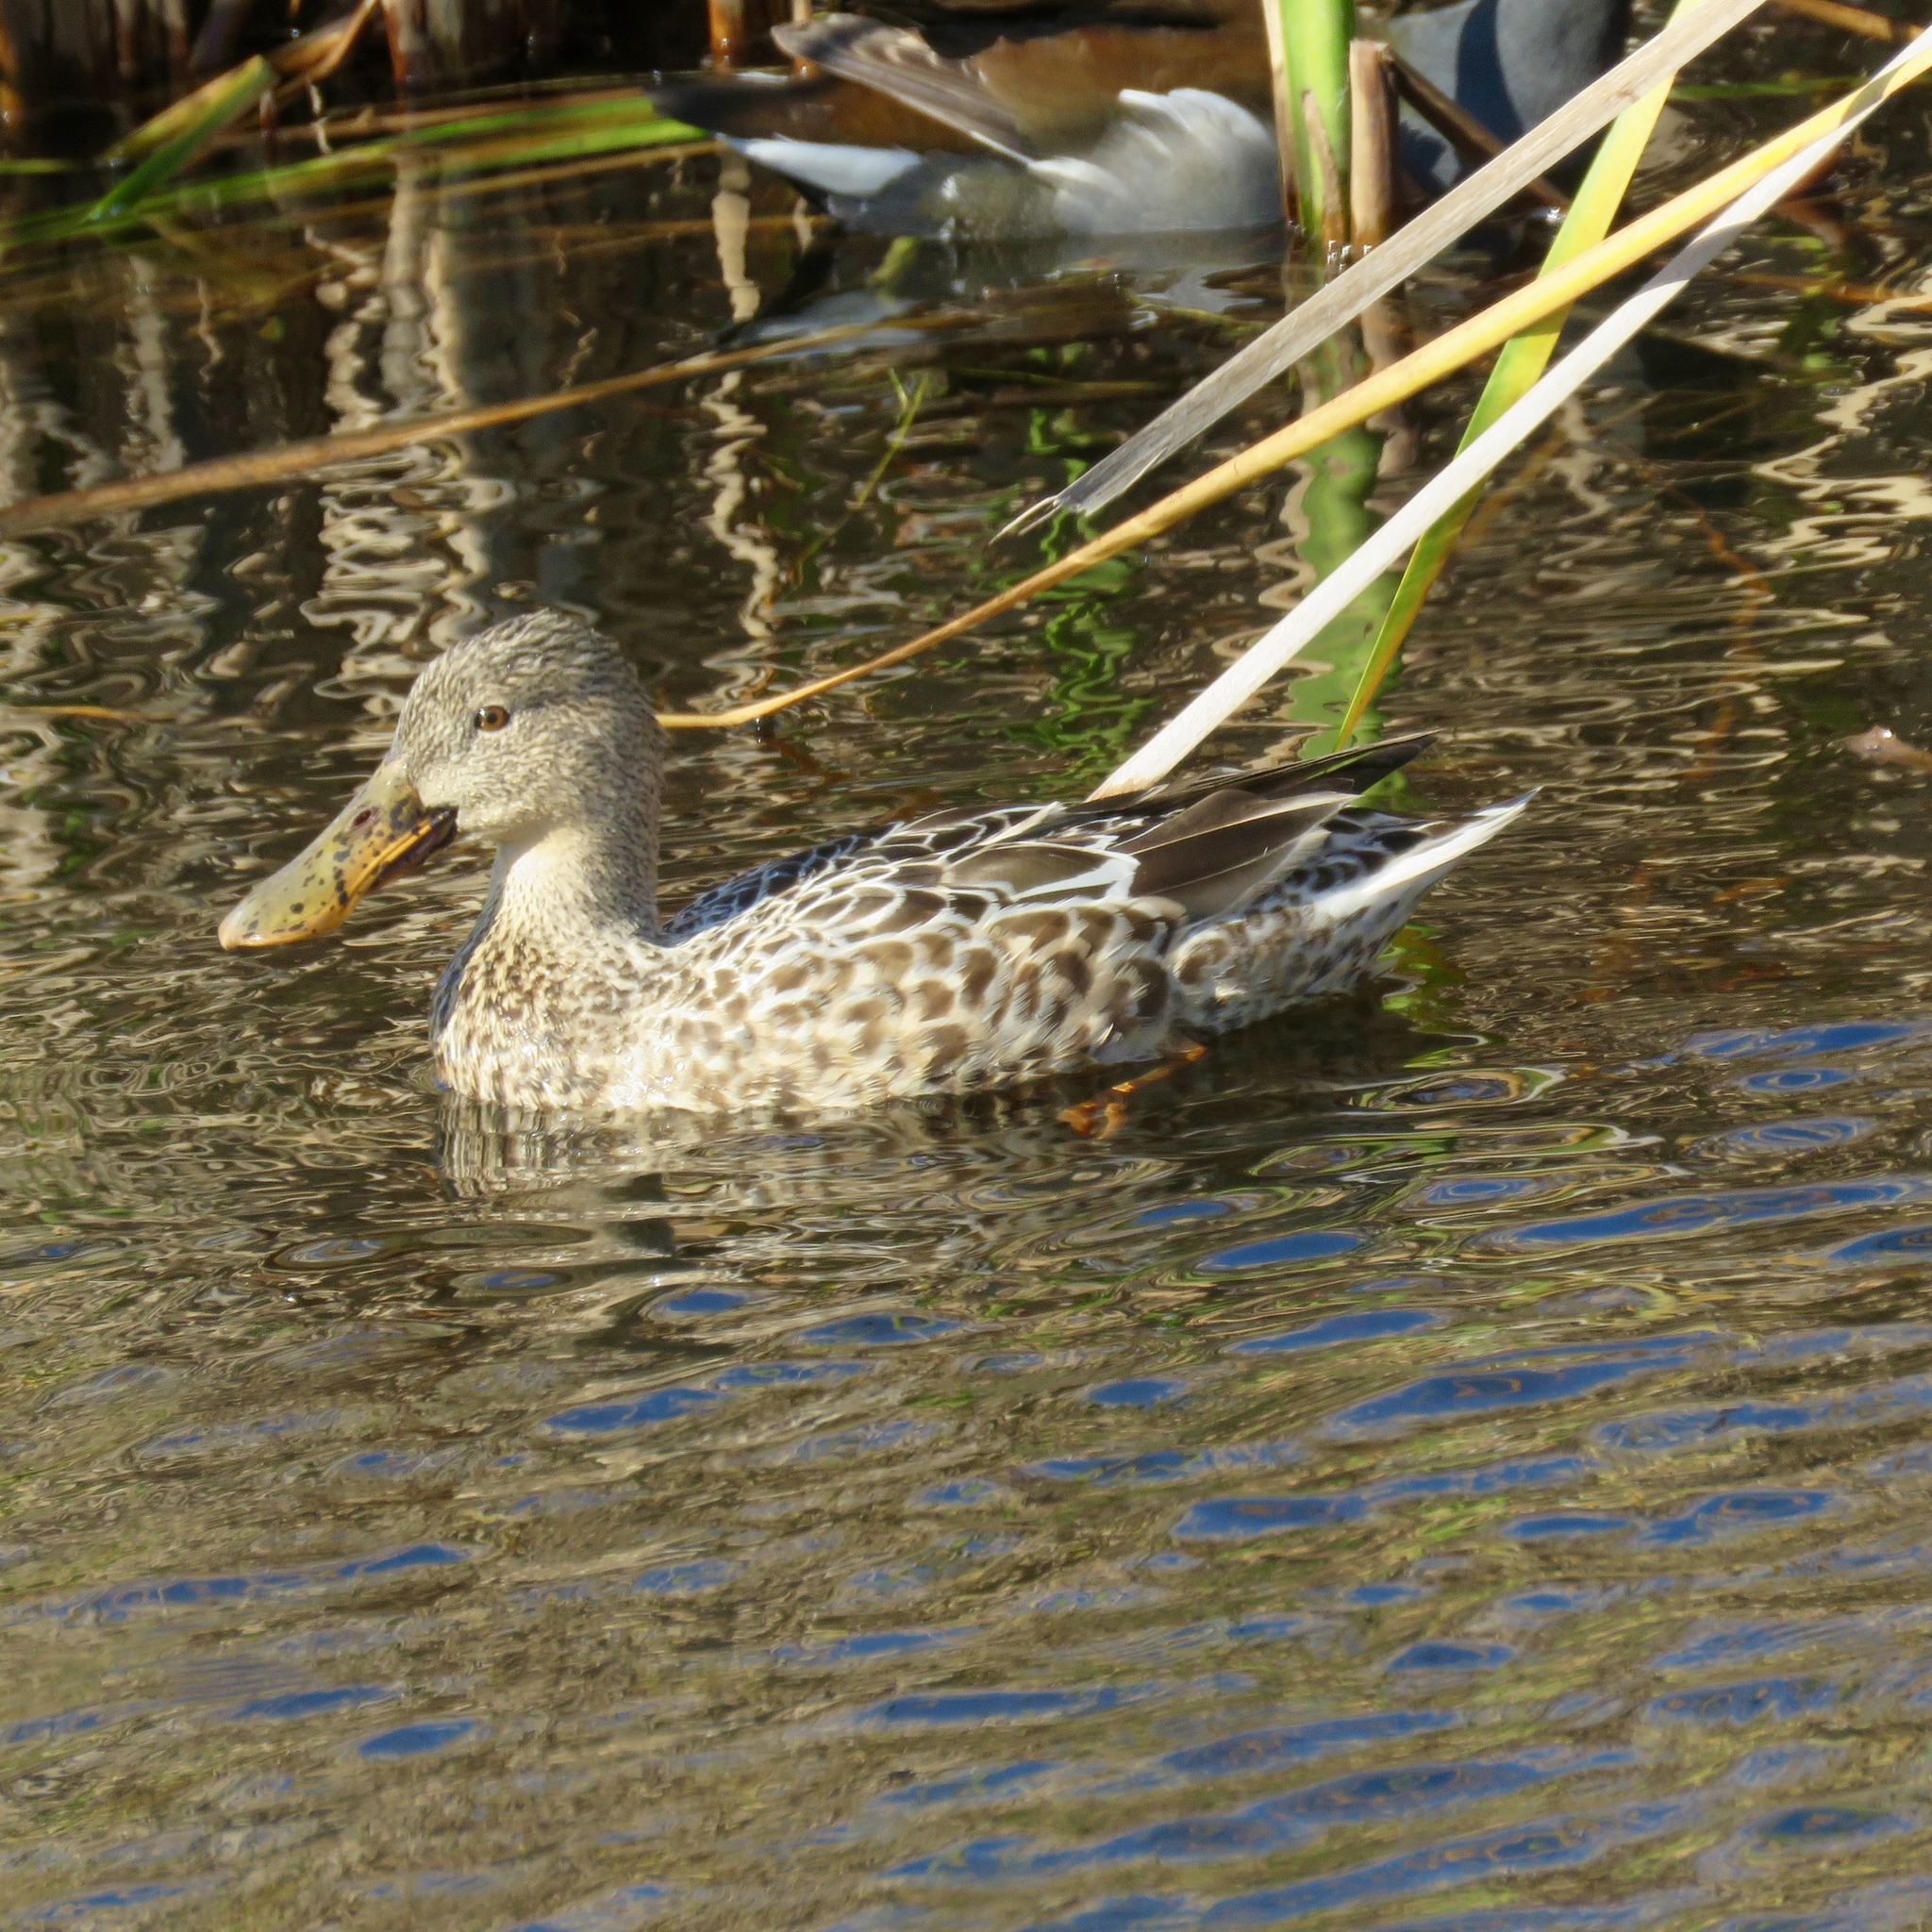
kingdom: Animalia
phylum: Chordata
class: Aves
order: Anseriformes
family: Anatidae
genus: Spatula
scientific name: Spatula clypeata
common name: Northern shoveler
